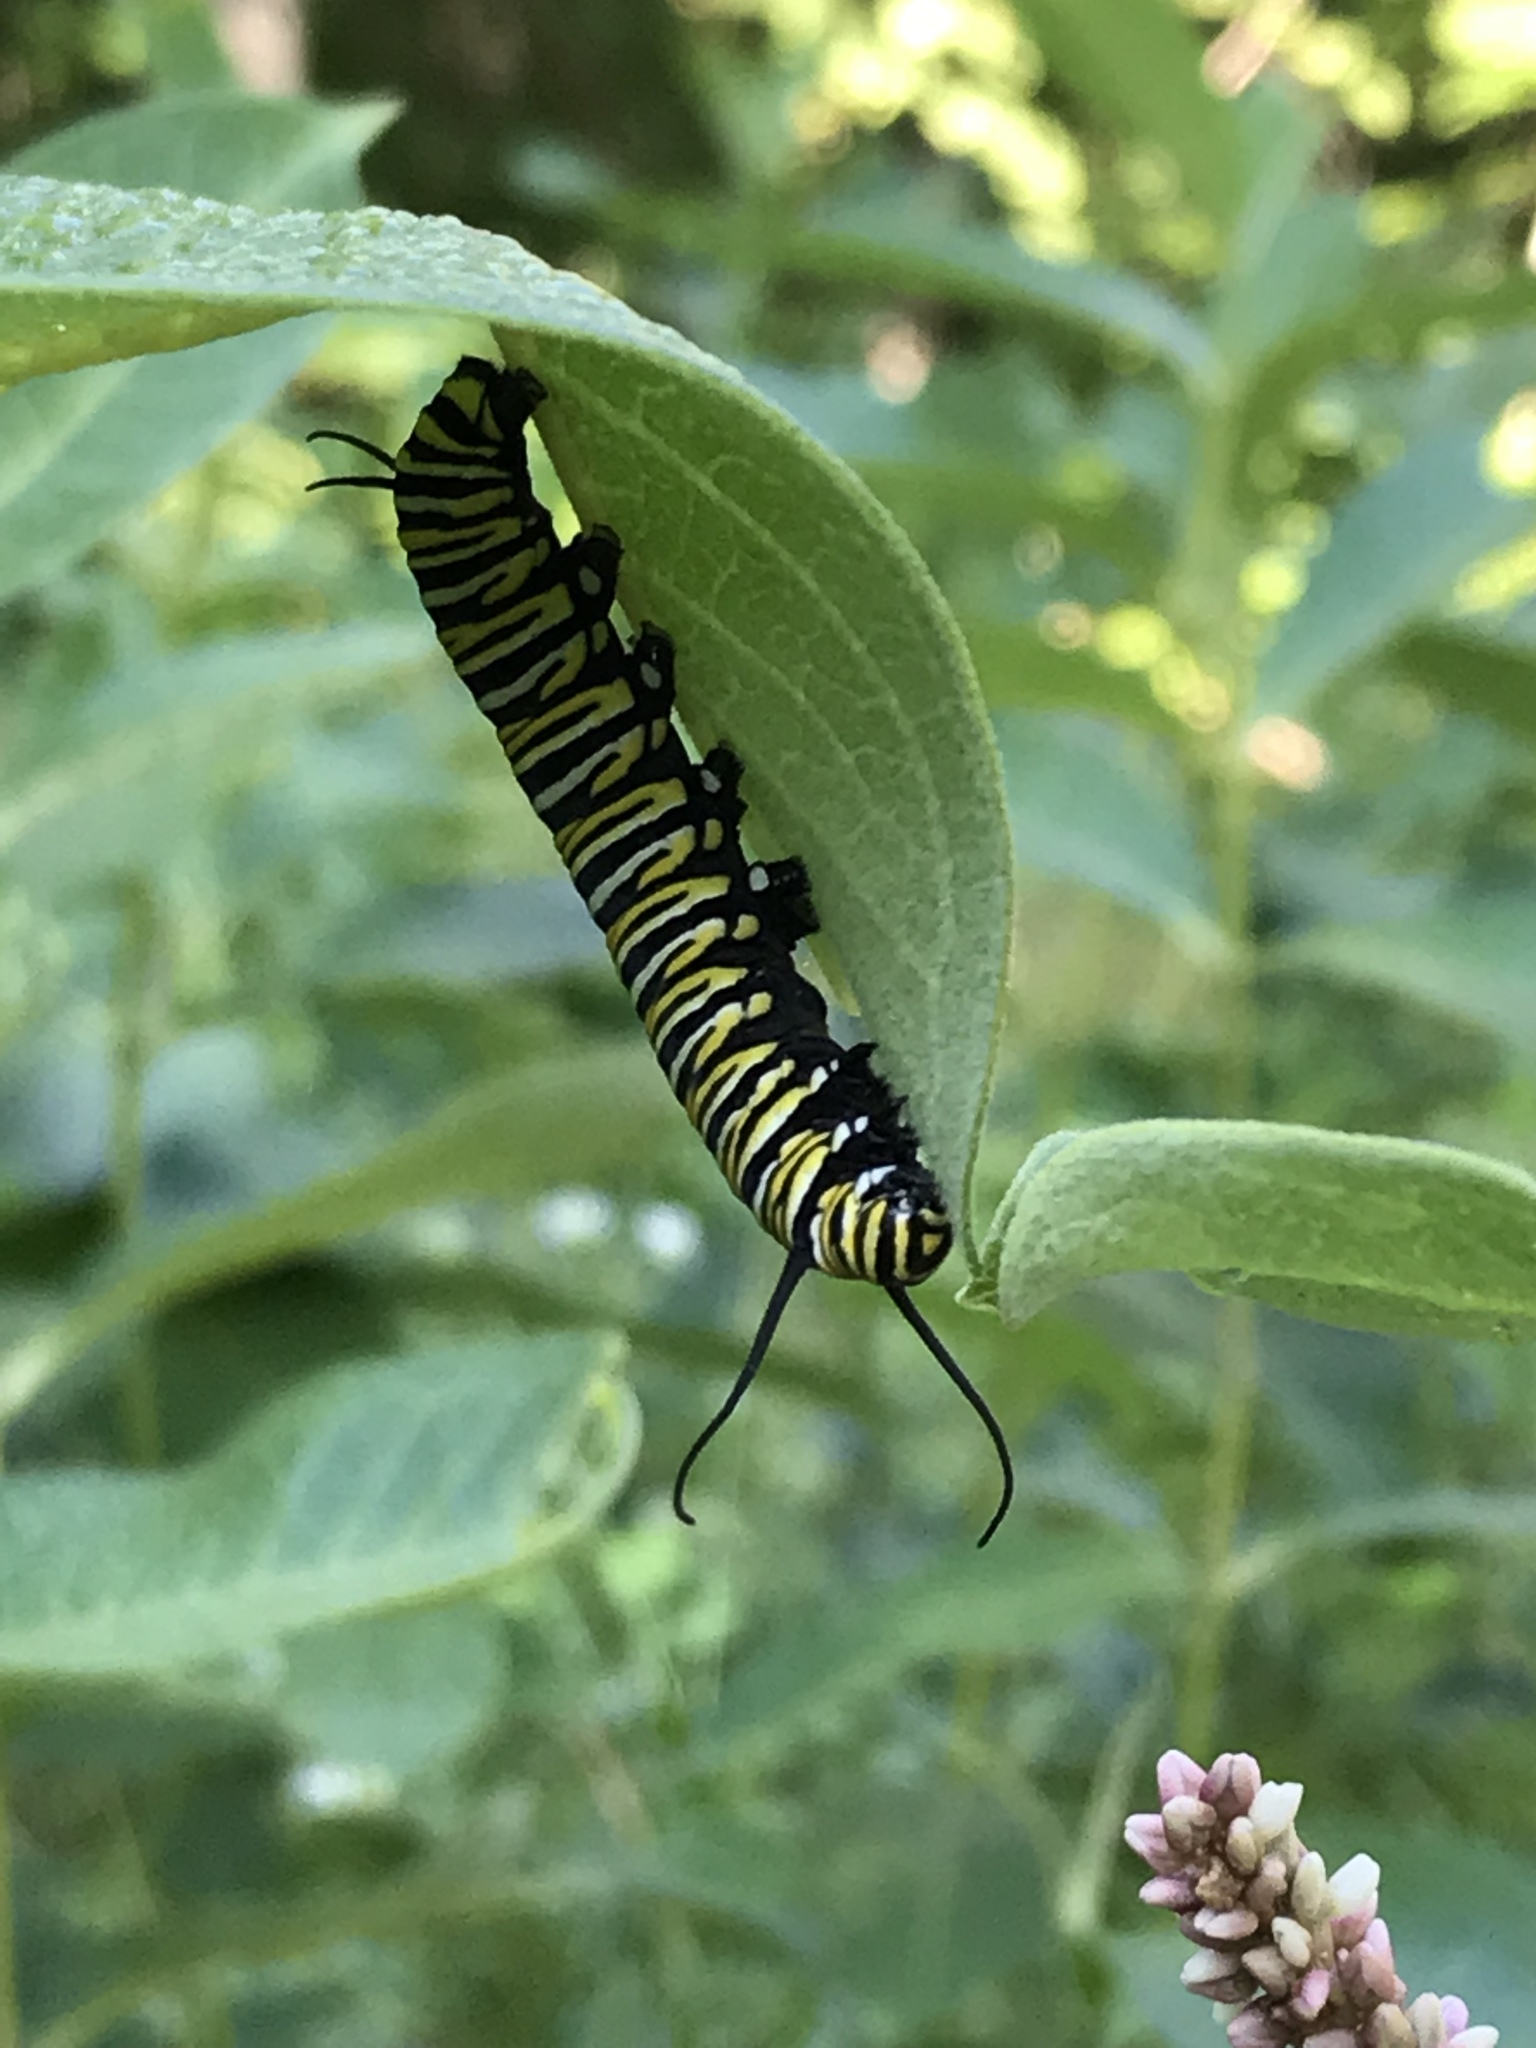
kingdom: Animalia
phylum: Arthropoda
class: Insecta
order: Lepidoptera
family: Nymphalidae
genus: Danaus
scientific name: Danaus plexippus
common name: Monarch
